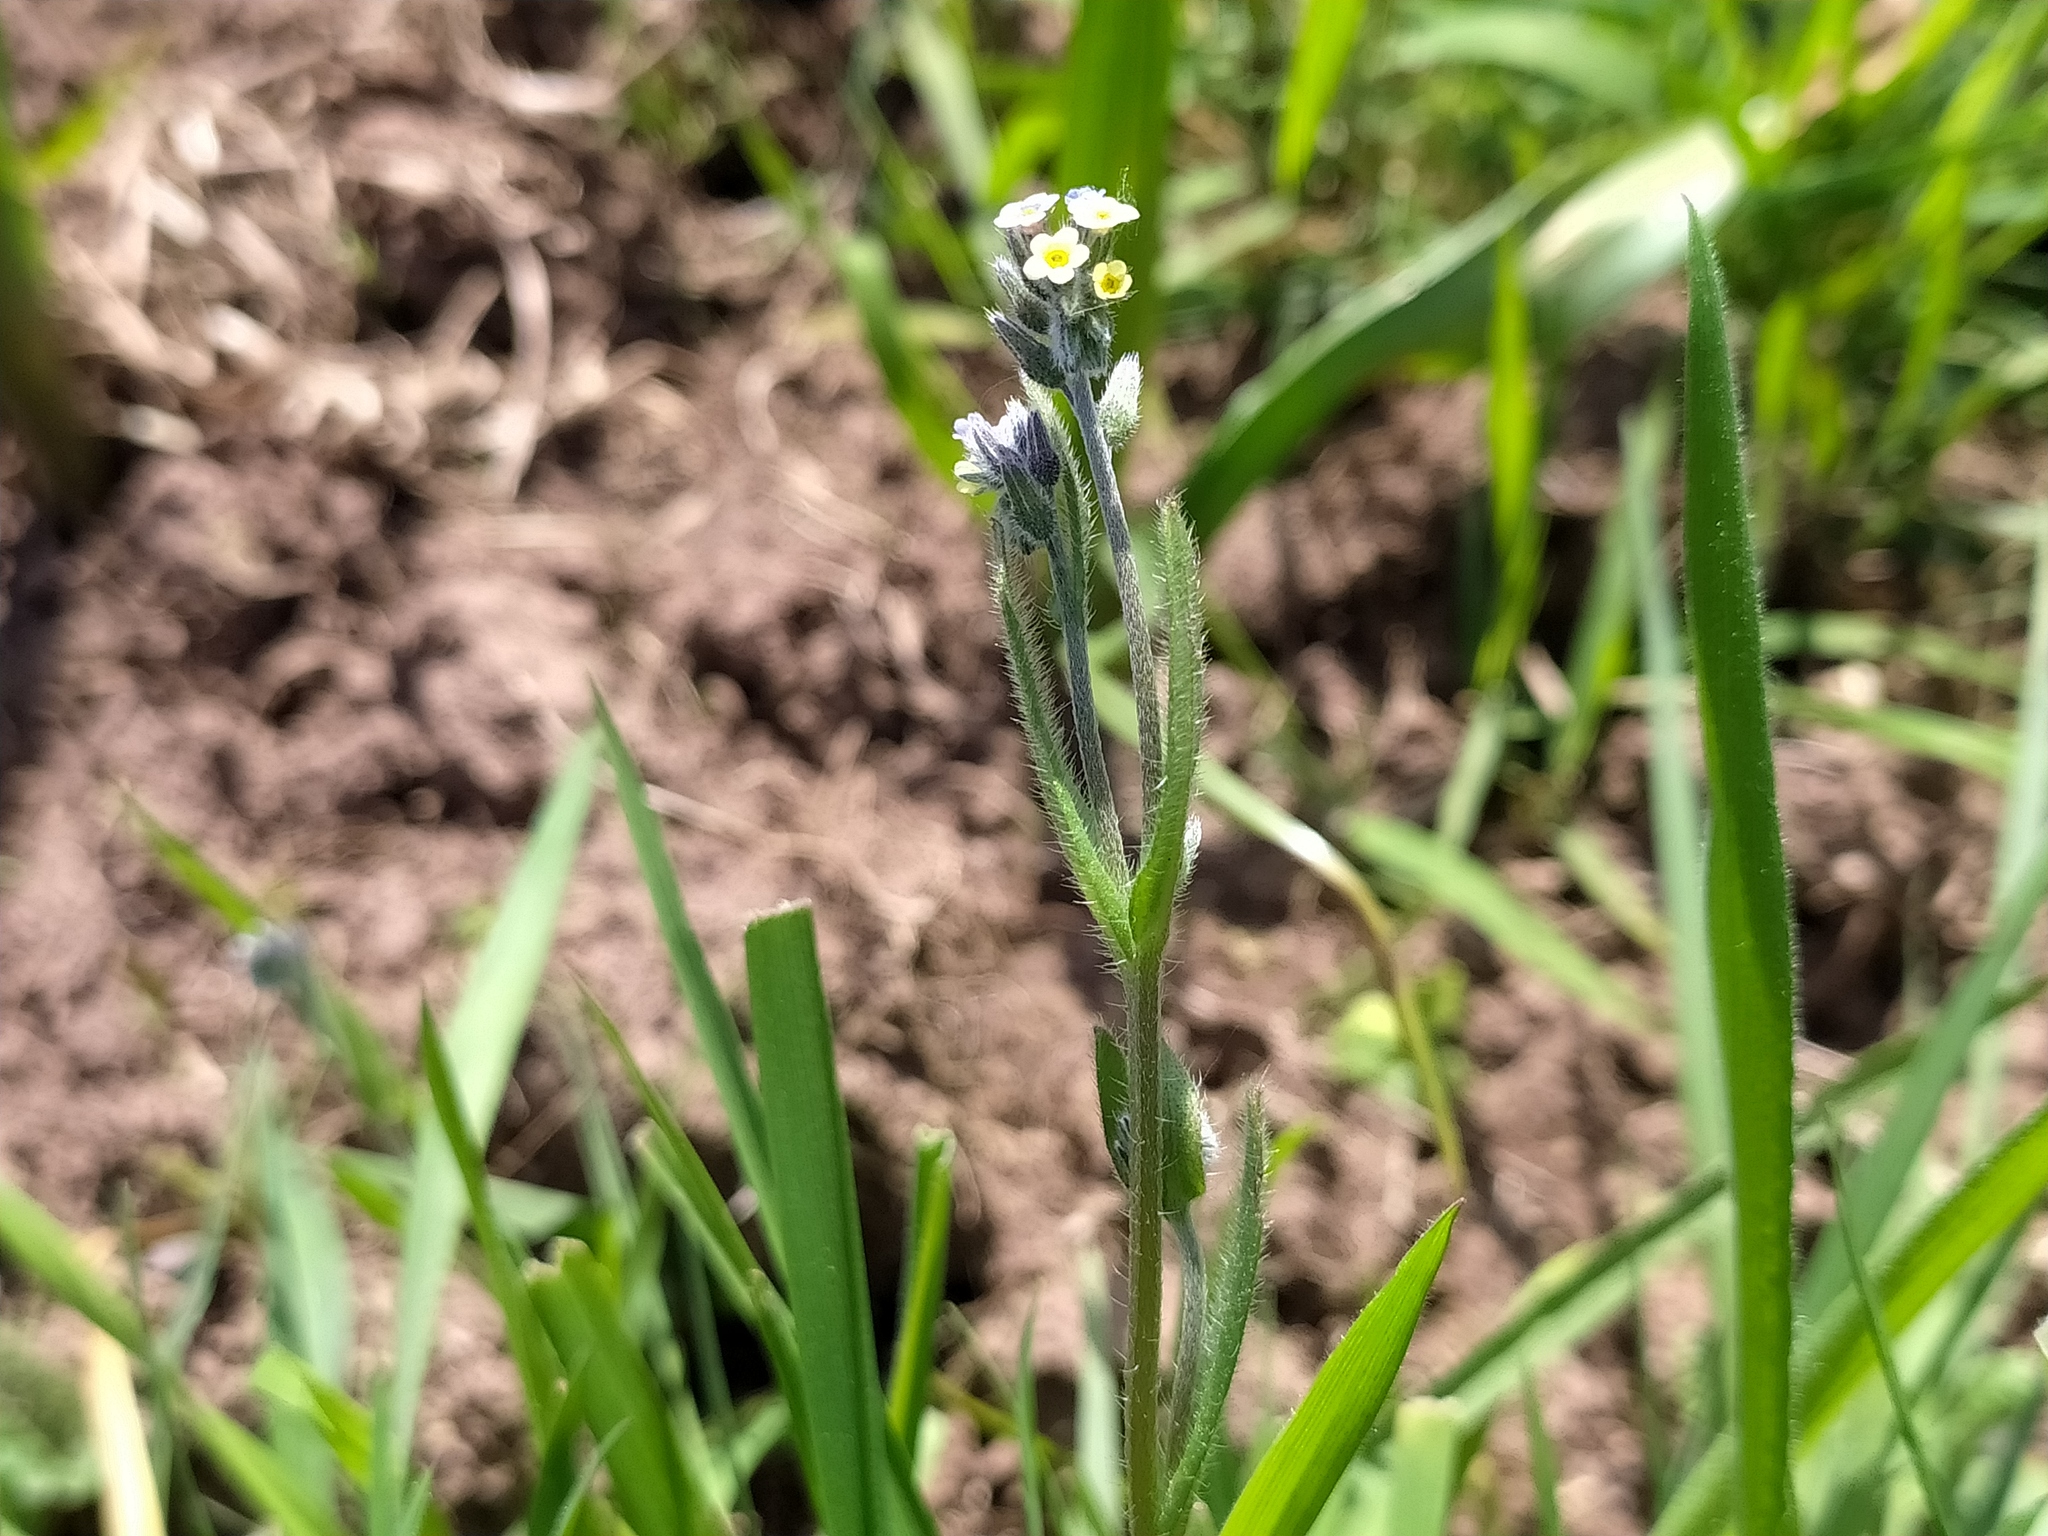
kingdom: Plantae
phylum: Tracheophyta
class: Magnoliopsida
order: Boraginales
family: Boraginaceae
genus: Myosotis
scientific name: Myosotis discolor
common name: Changing forget-me-not
